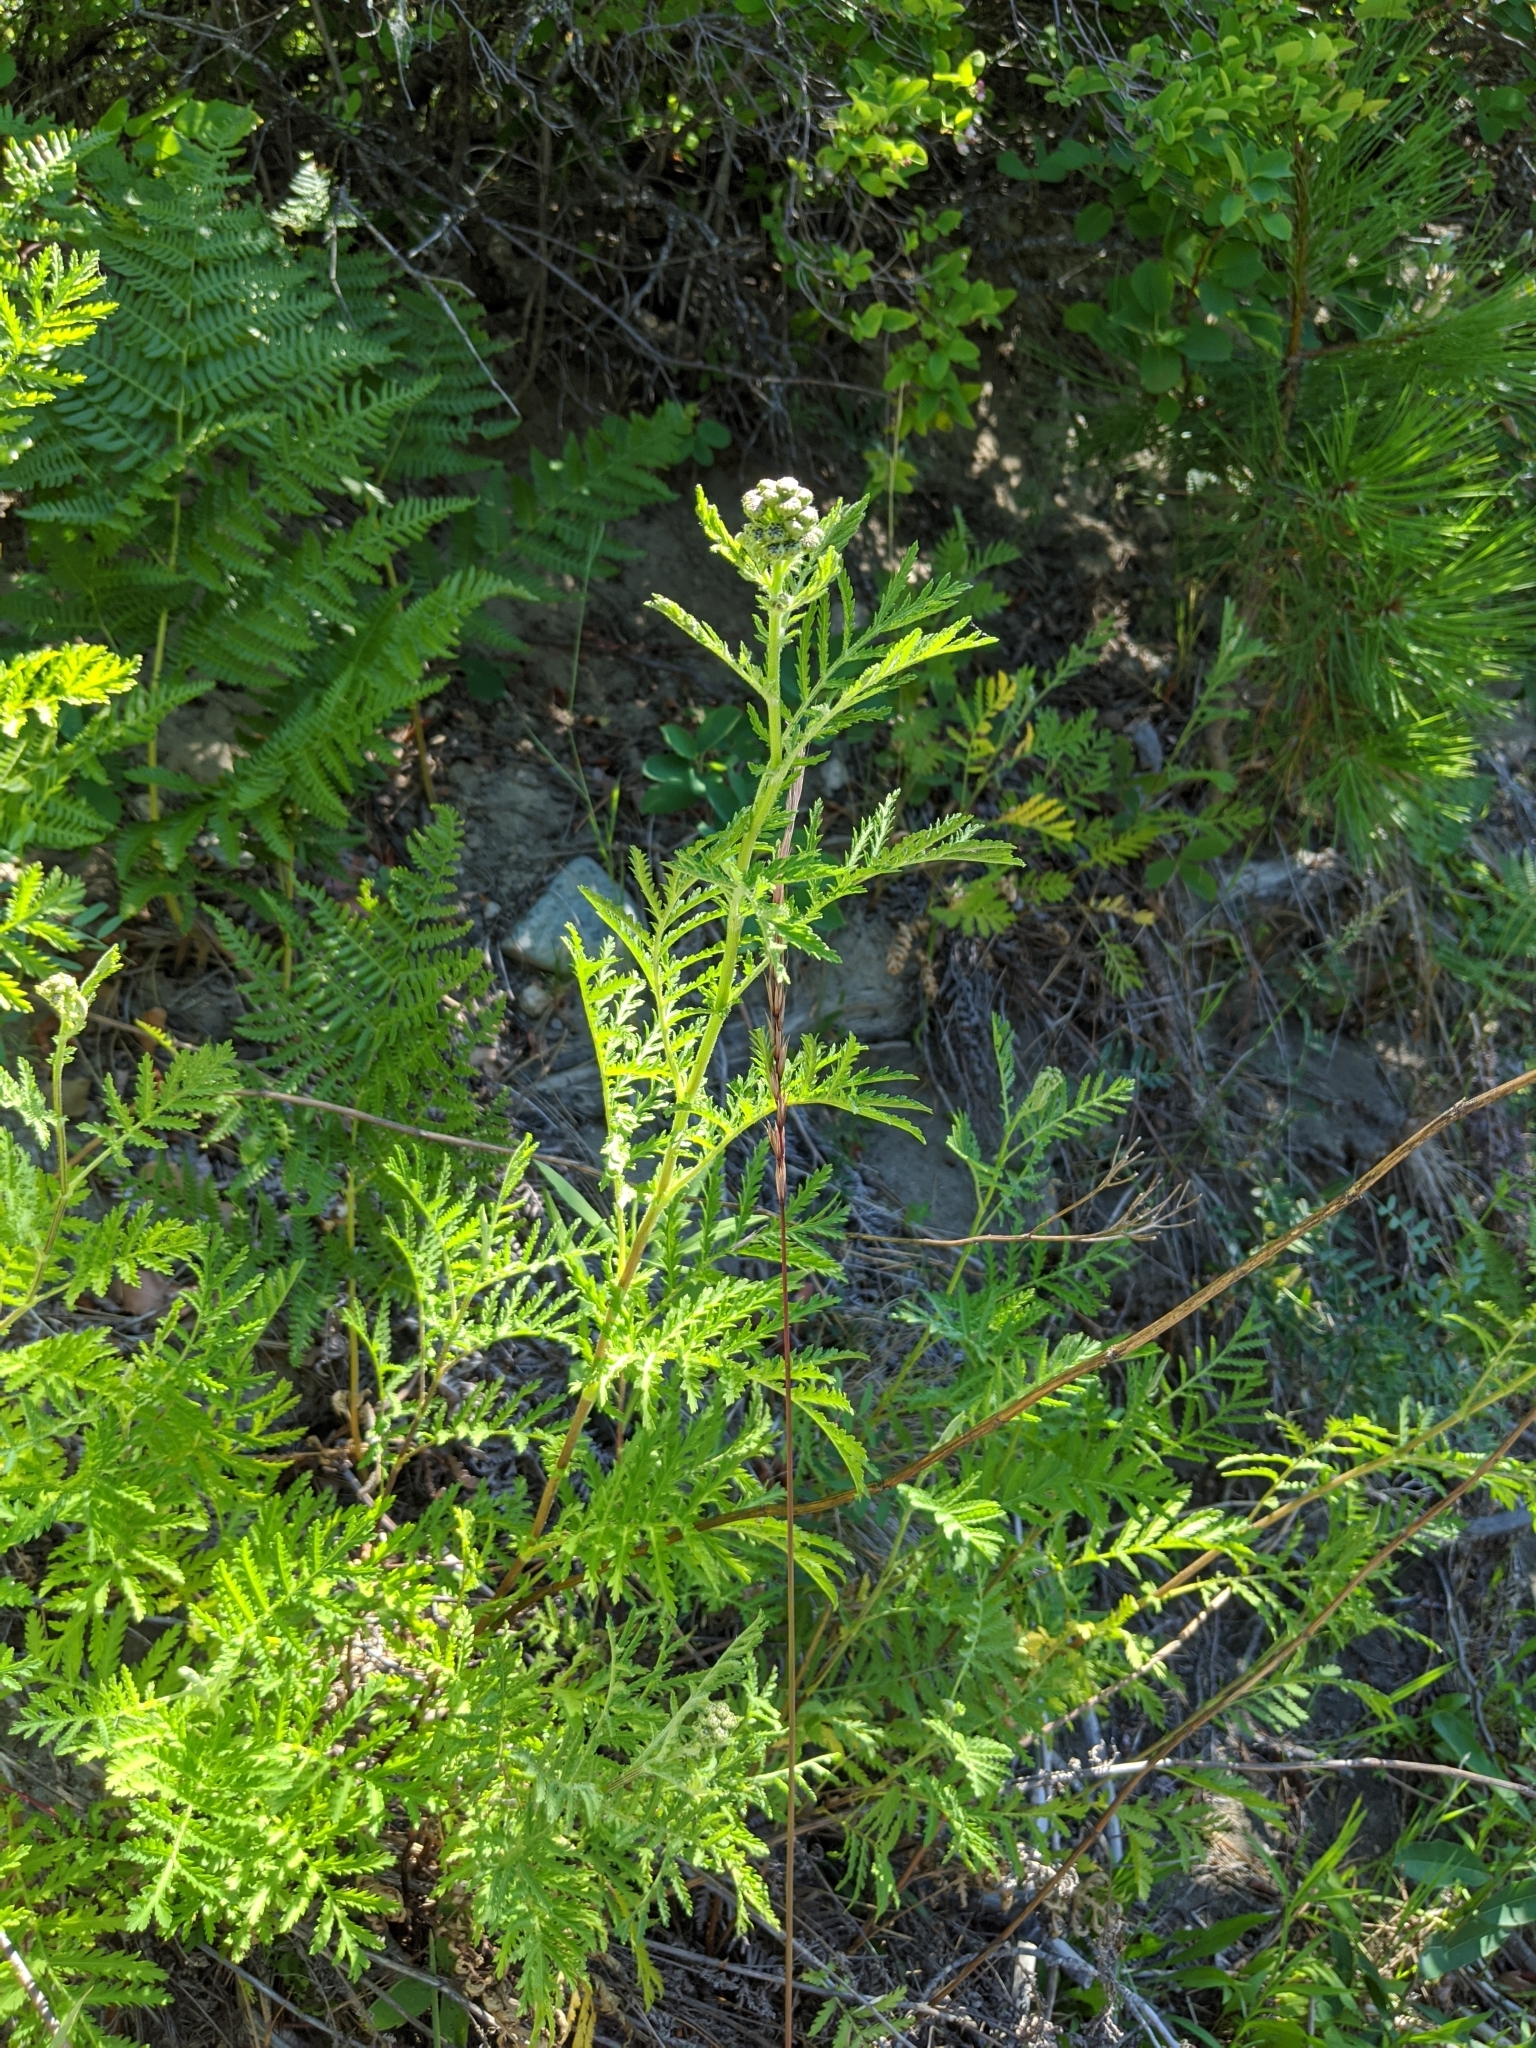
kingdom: Plantae
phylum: Tracheophyta
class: Magnoliopsida
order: Asterales
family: Asteraceae
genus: Tanacetum
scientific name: Tanacetum vulgare
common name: Common tansy
